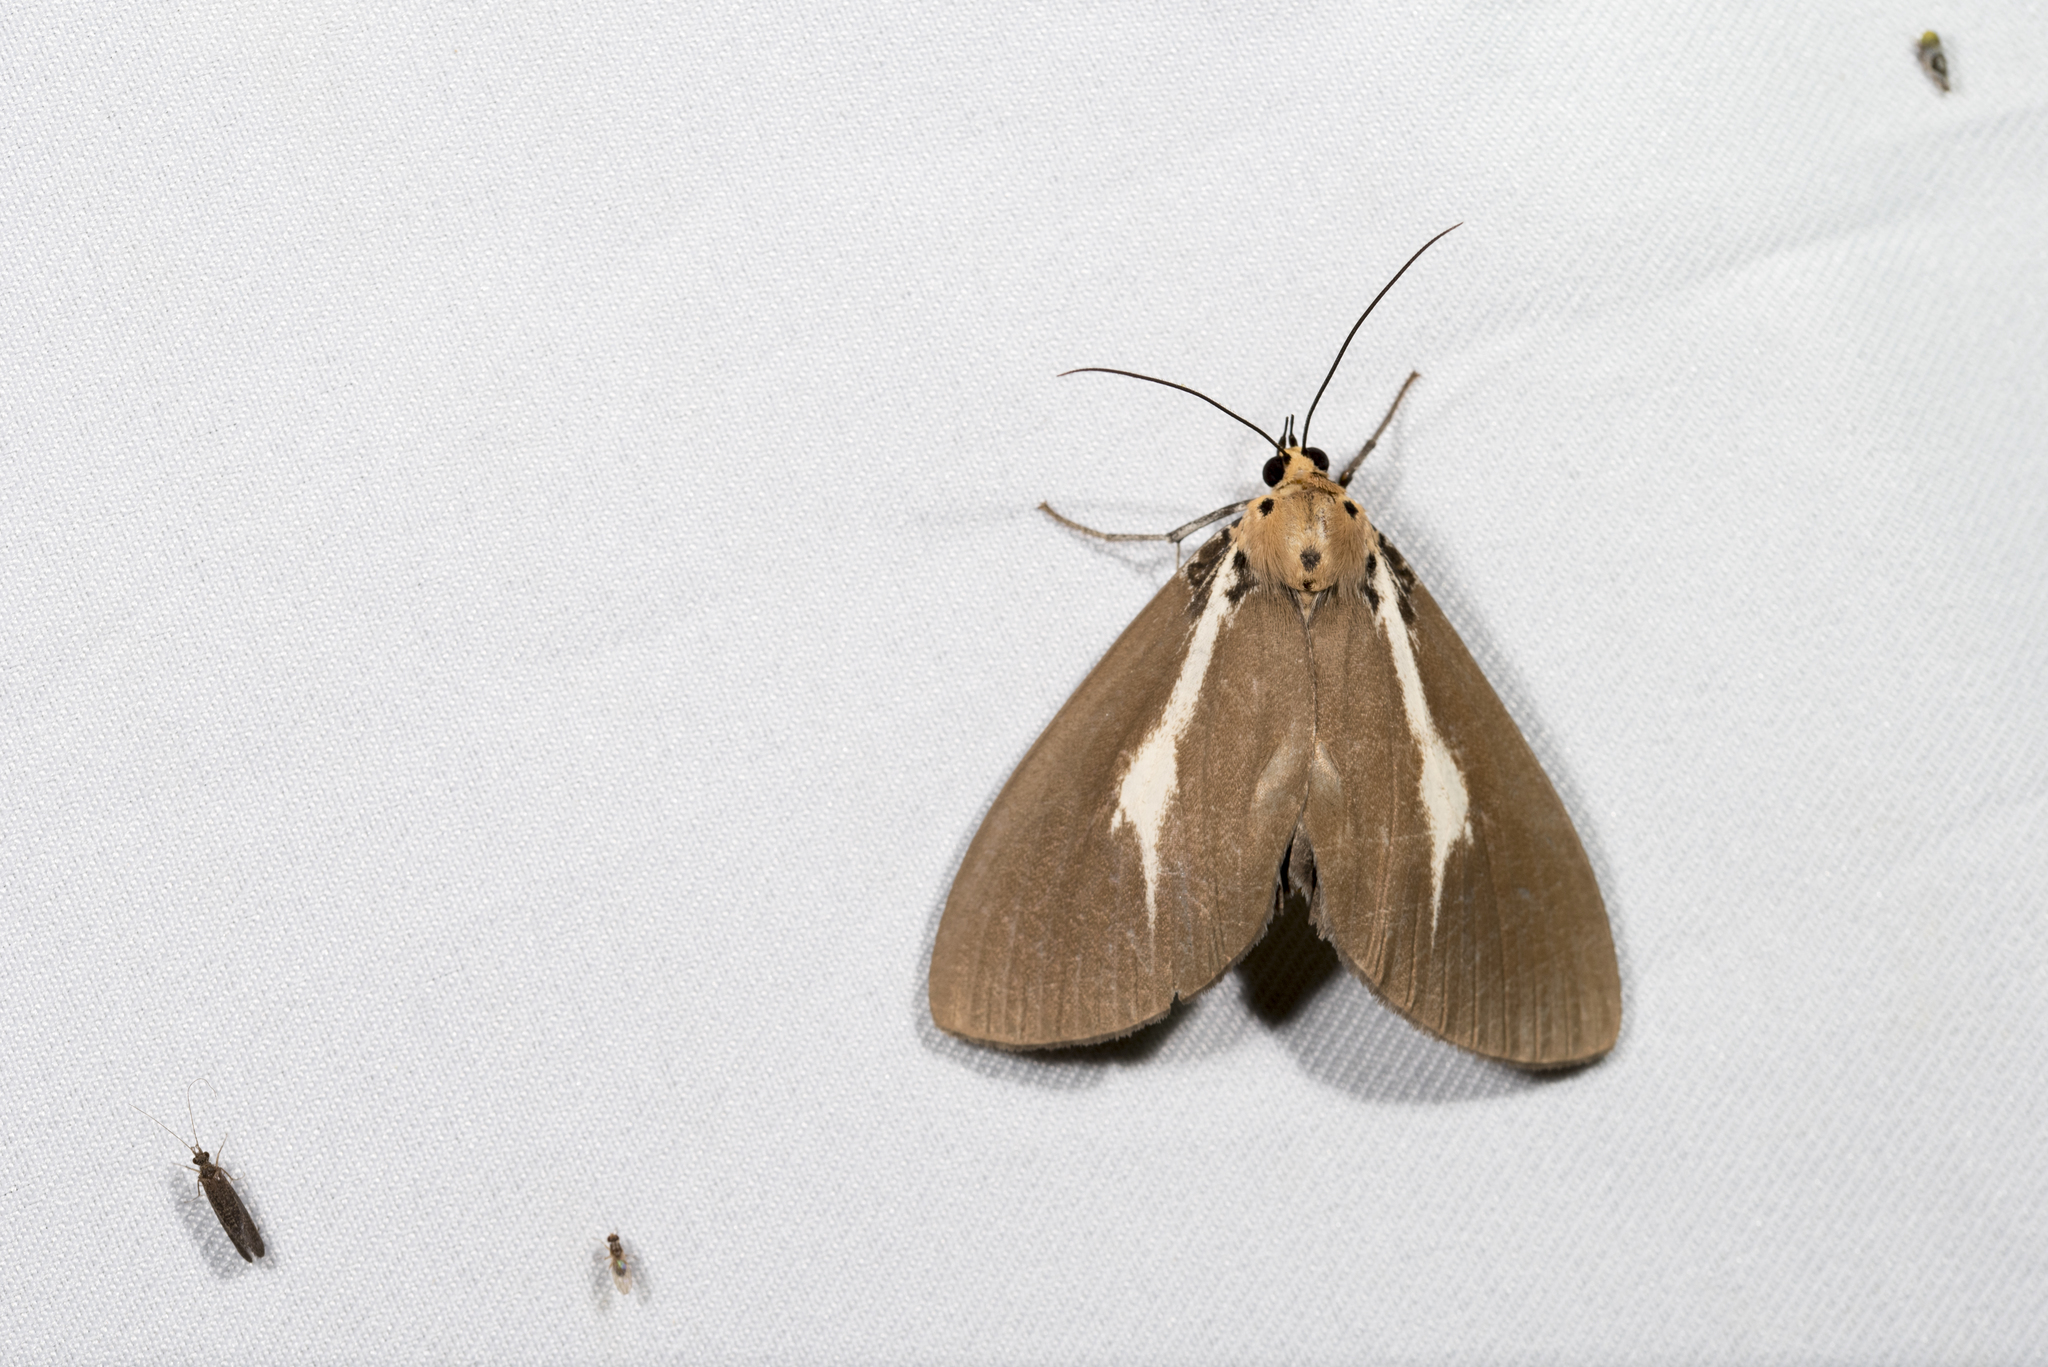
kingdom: Animalia
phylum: Arthropoda
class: Insecta
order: Lepidoptera
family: Erebidae
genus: Asota
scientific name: Asota heliconia
